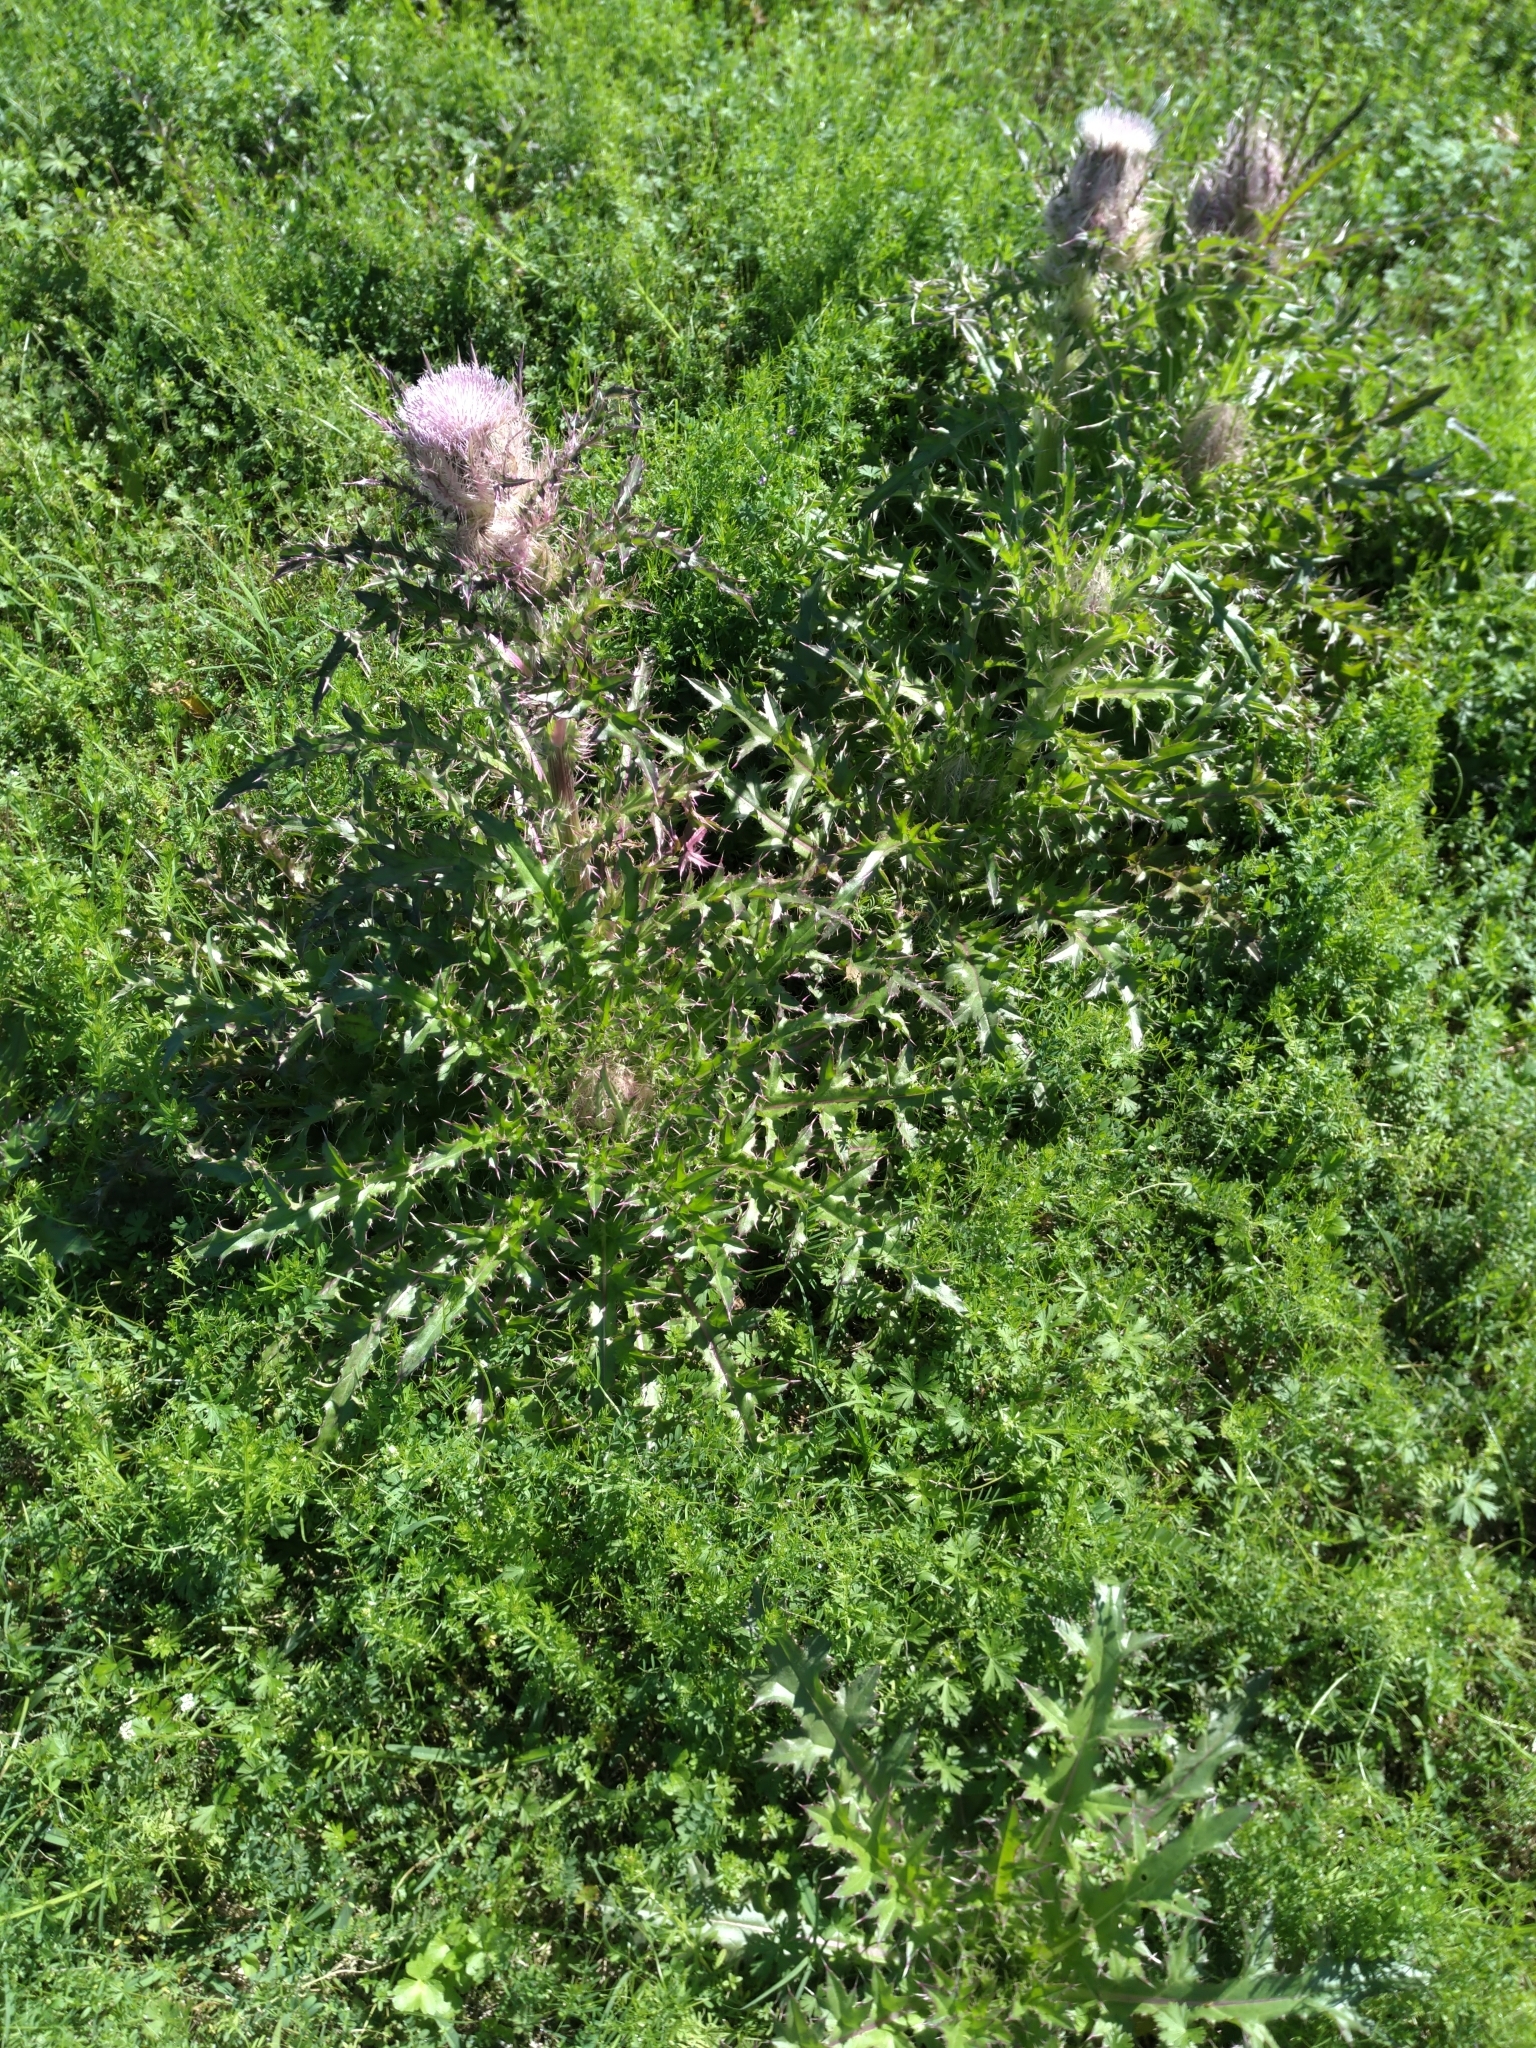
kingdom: Plantae
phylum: Tracheophyta
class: Magnoliopsida
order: Asterales
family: Asteraceae
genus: Cirsium
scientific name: Cirsium horridulum
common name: Bristly thistle
